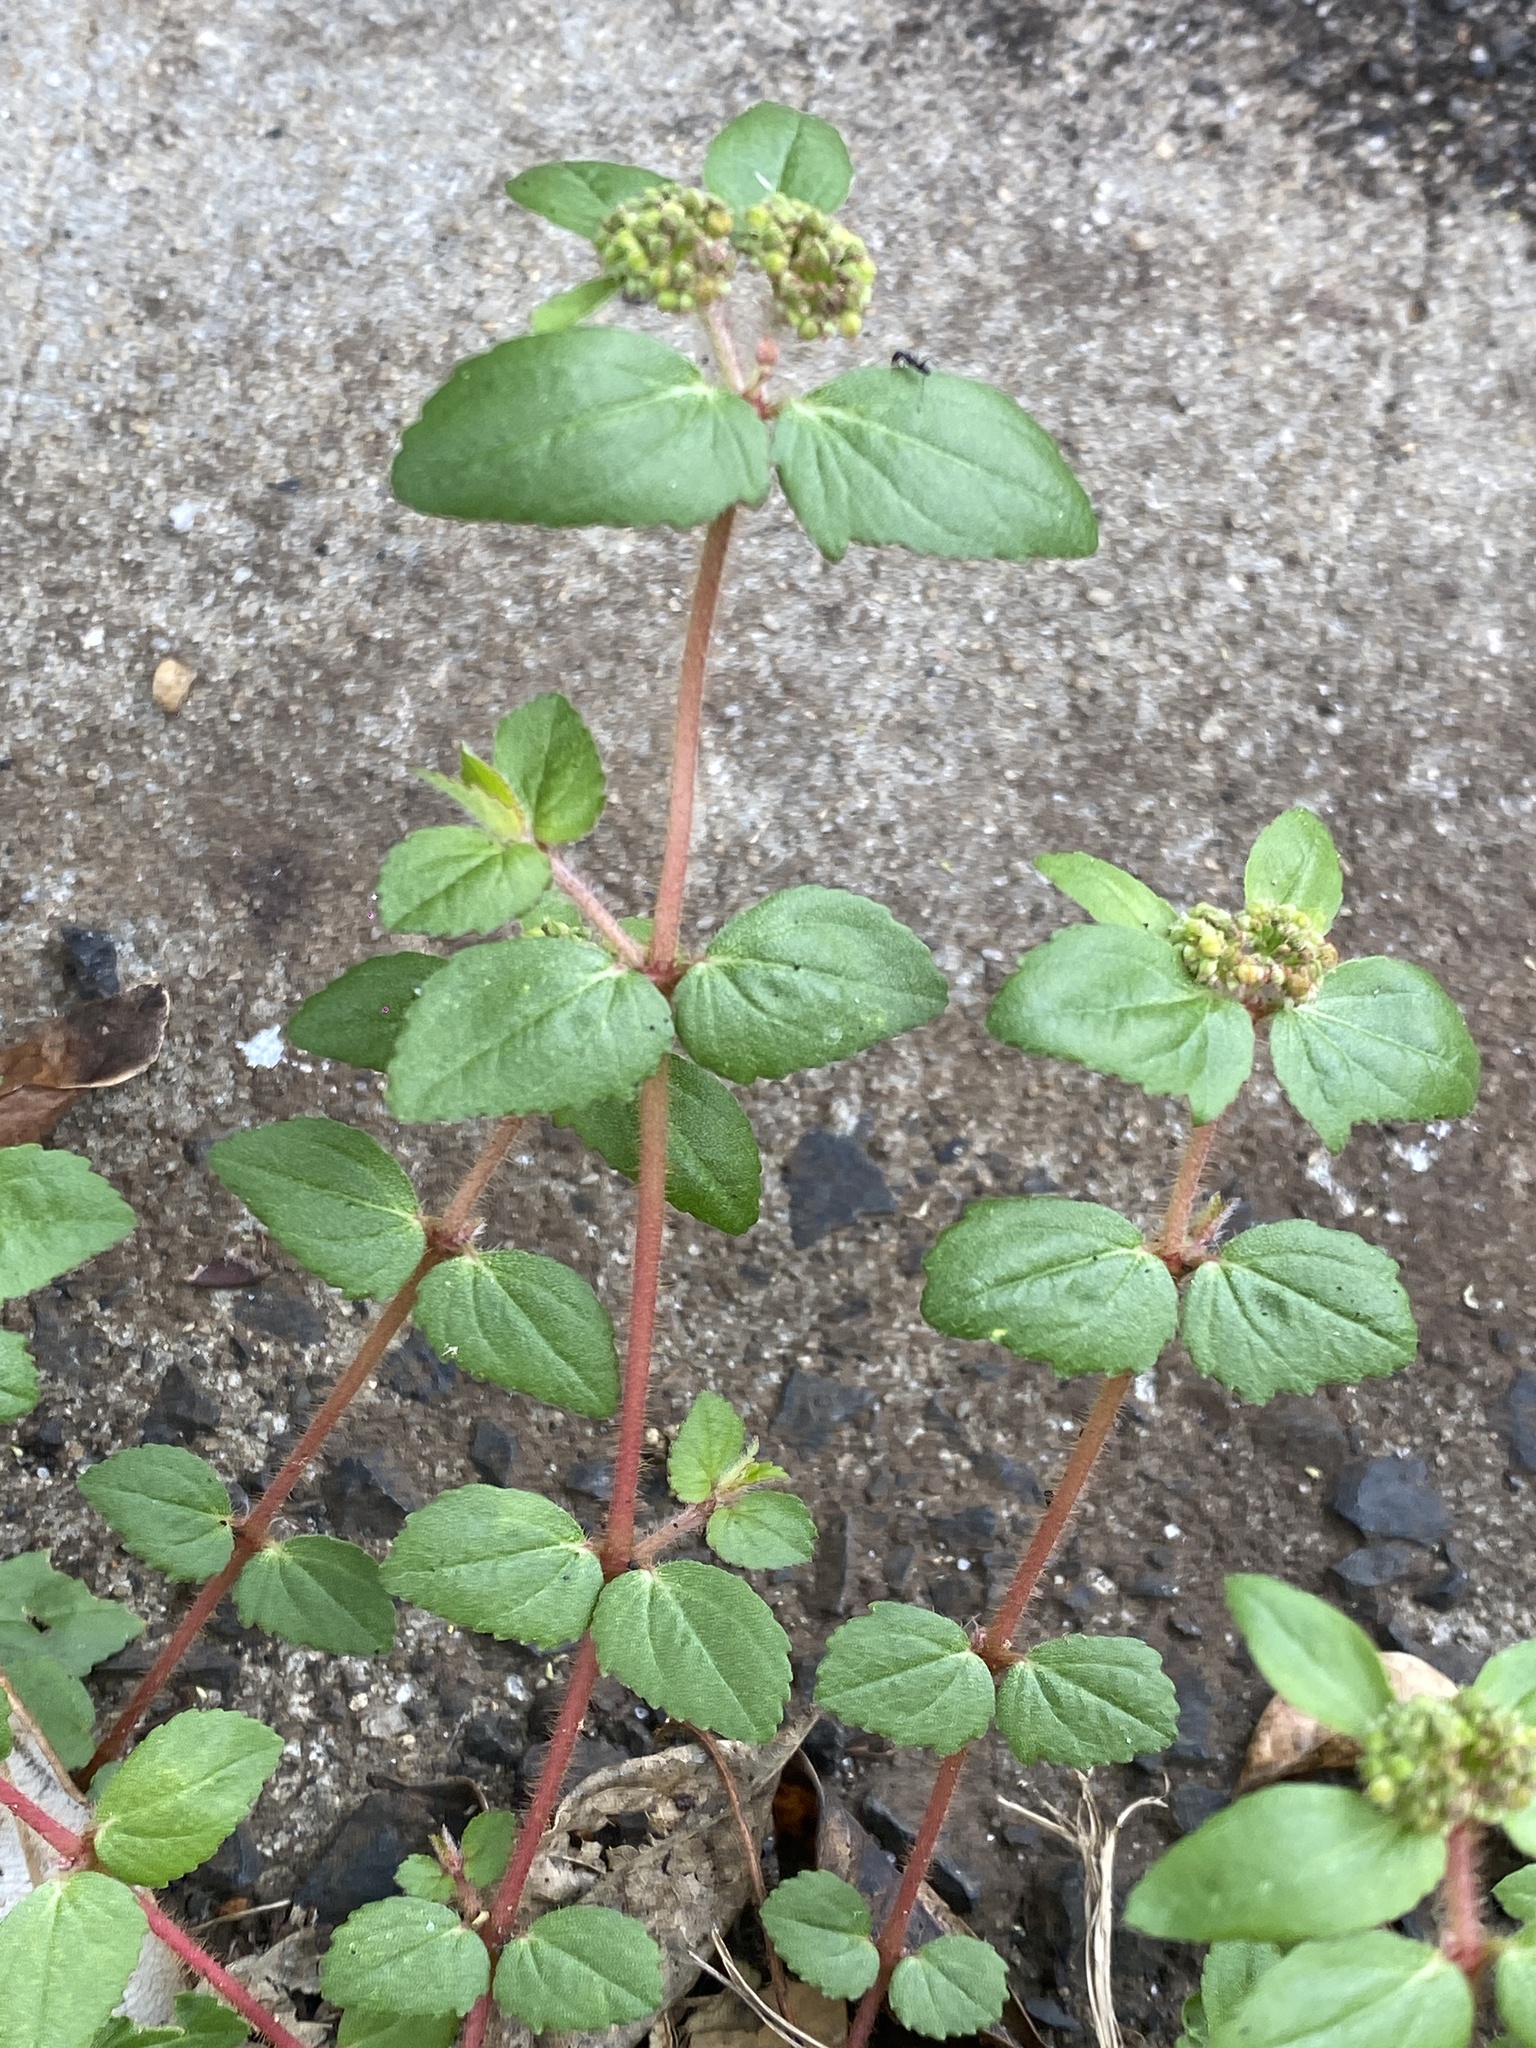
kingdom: Plantae
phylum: Tracheophyta
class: Magnoliopsida
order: Malpighiales
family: Euphorbiaceae
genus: Euphorbia
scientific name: Euphorbia ophthalmica
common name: Florida hammock sandmat
